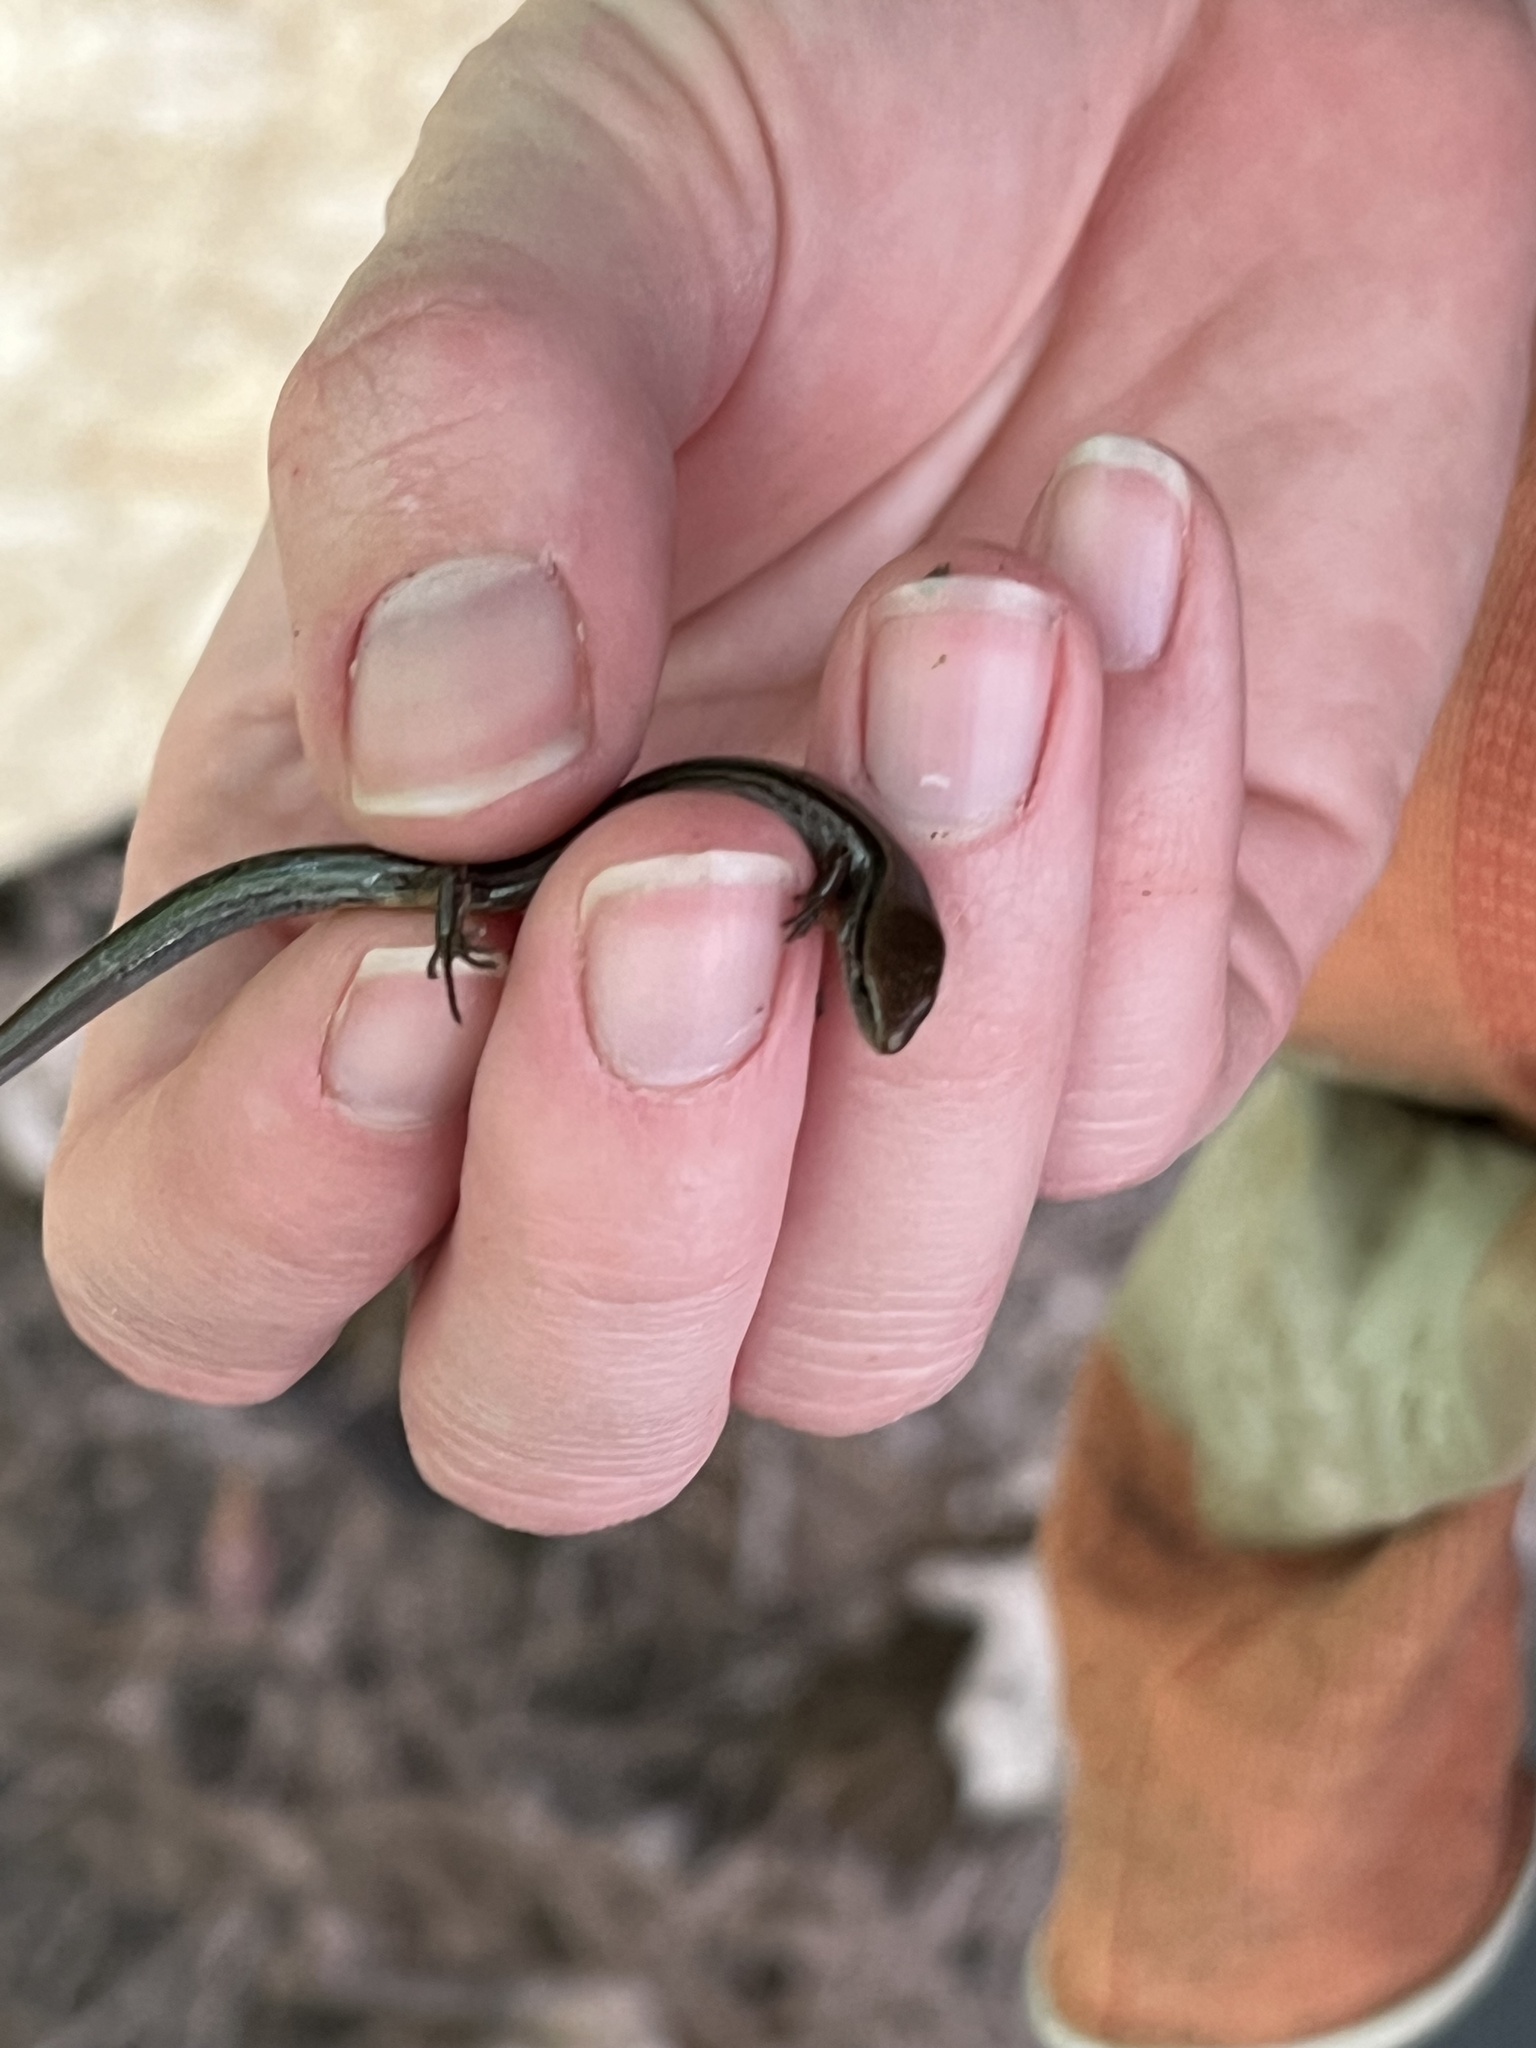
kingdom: Animalia
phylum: Chordata
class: Squamata
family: Scincidae
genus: Scincella
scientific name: Scincella lateralis
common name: Ground skink
